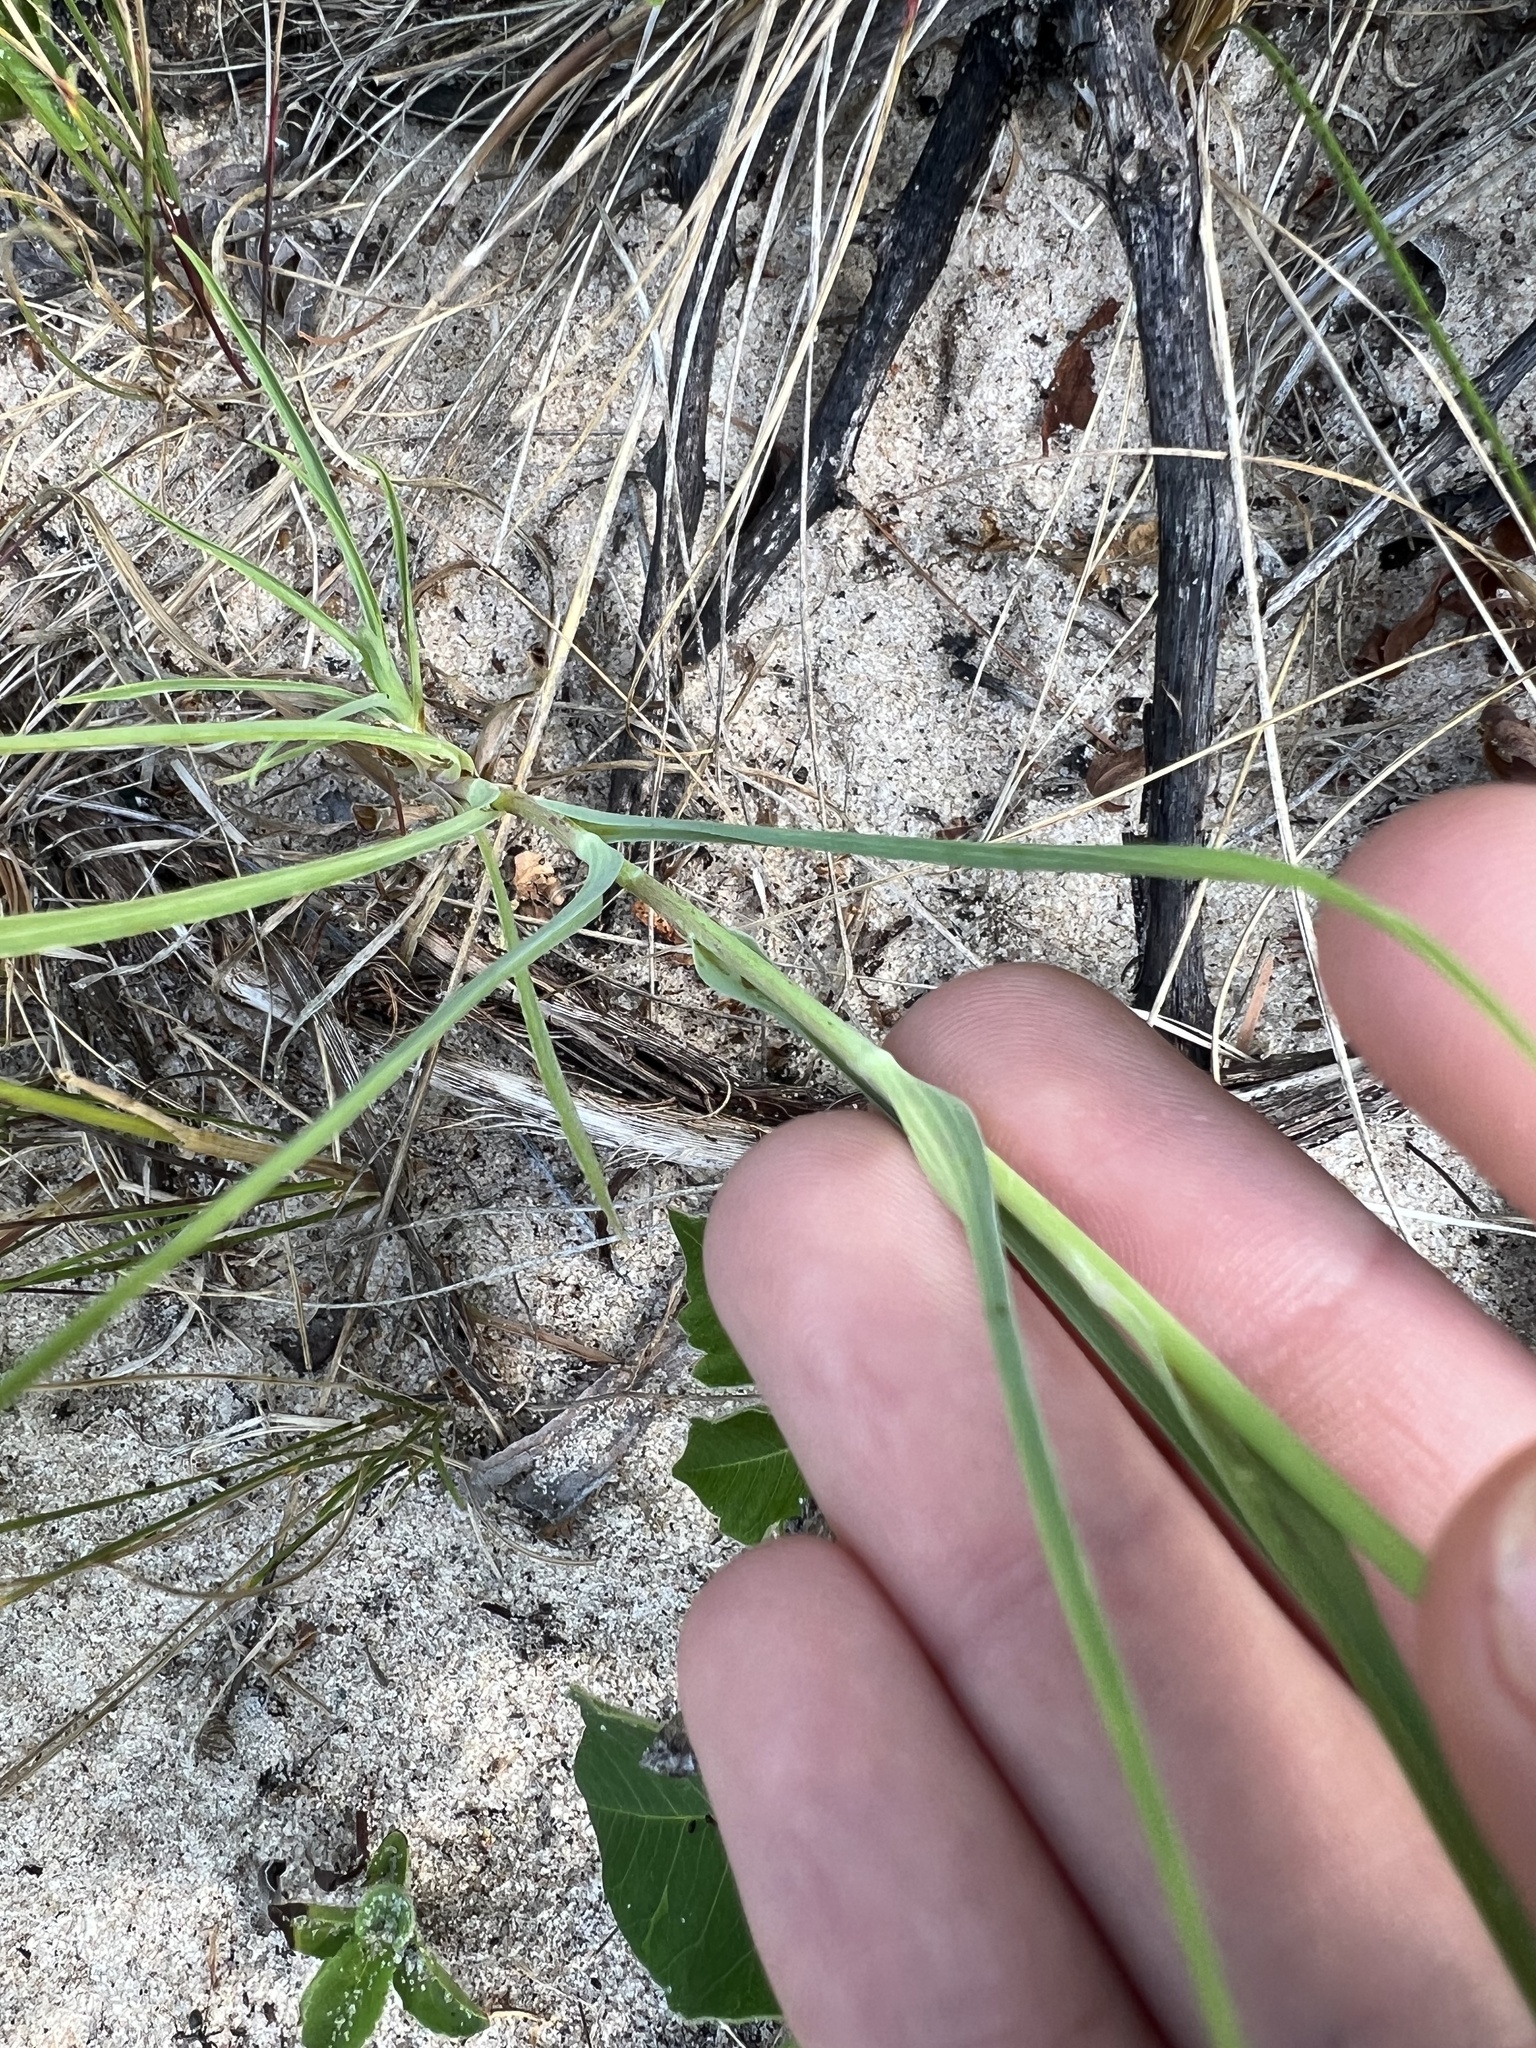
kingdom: Plantae
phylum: Tracheophyta
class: Magnoliopsida
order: Asterales
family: Asteraceae
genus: Tragopogon
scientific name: Tragopogon dubius
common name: Yellow salsify
